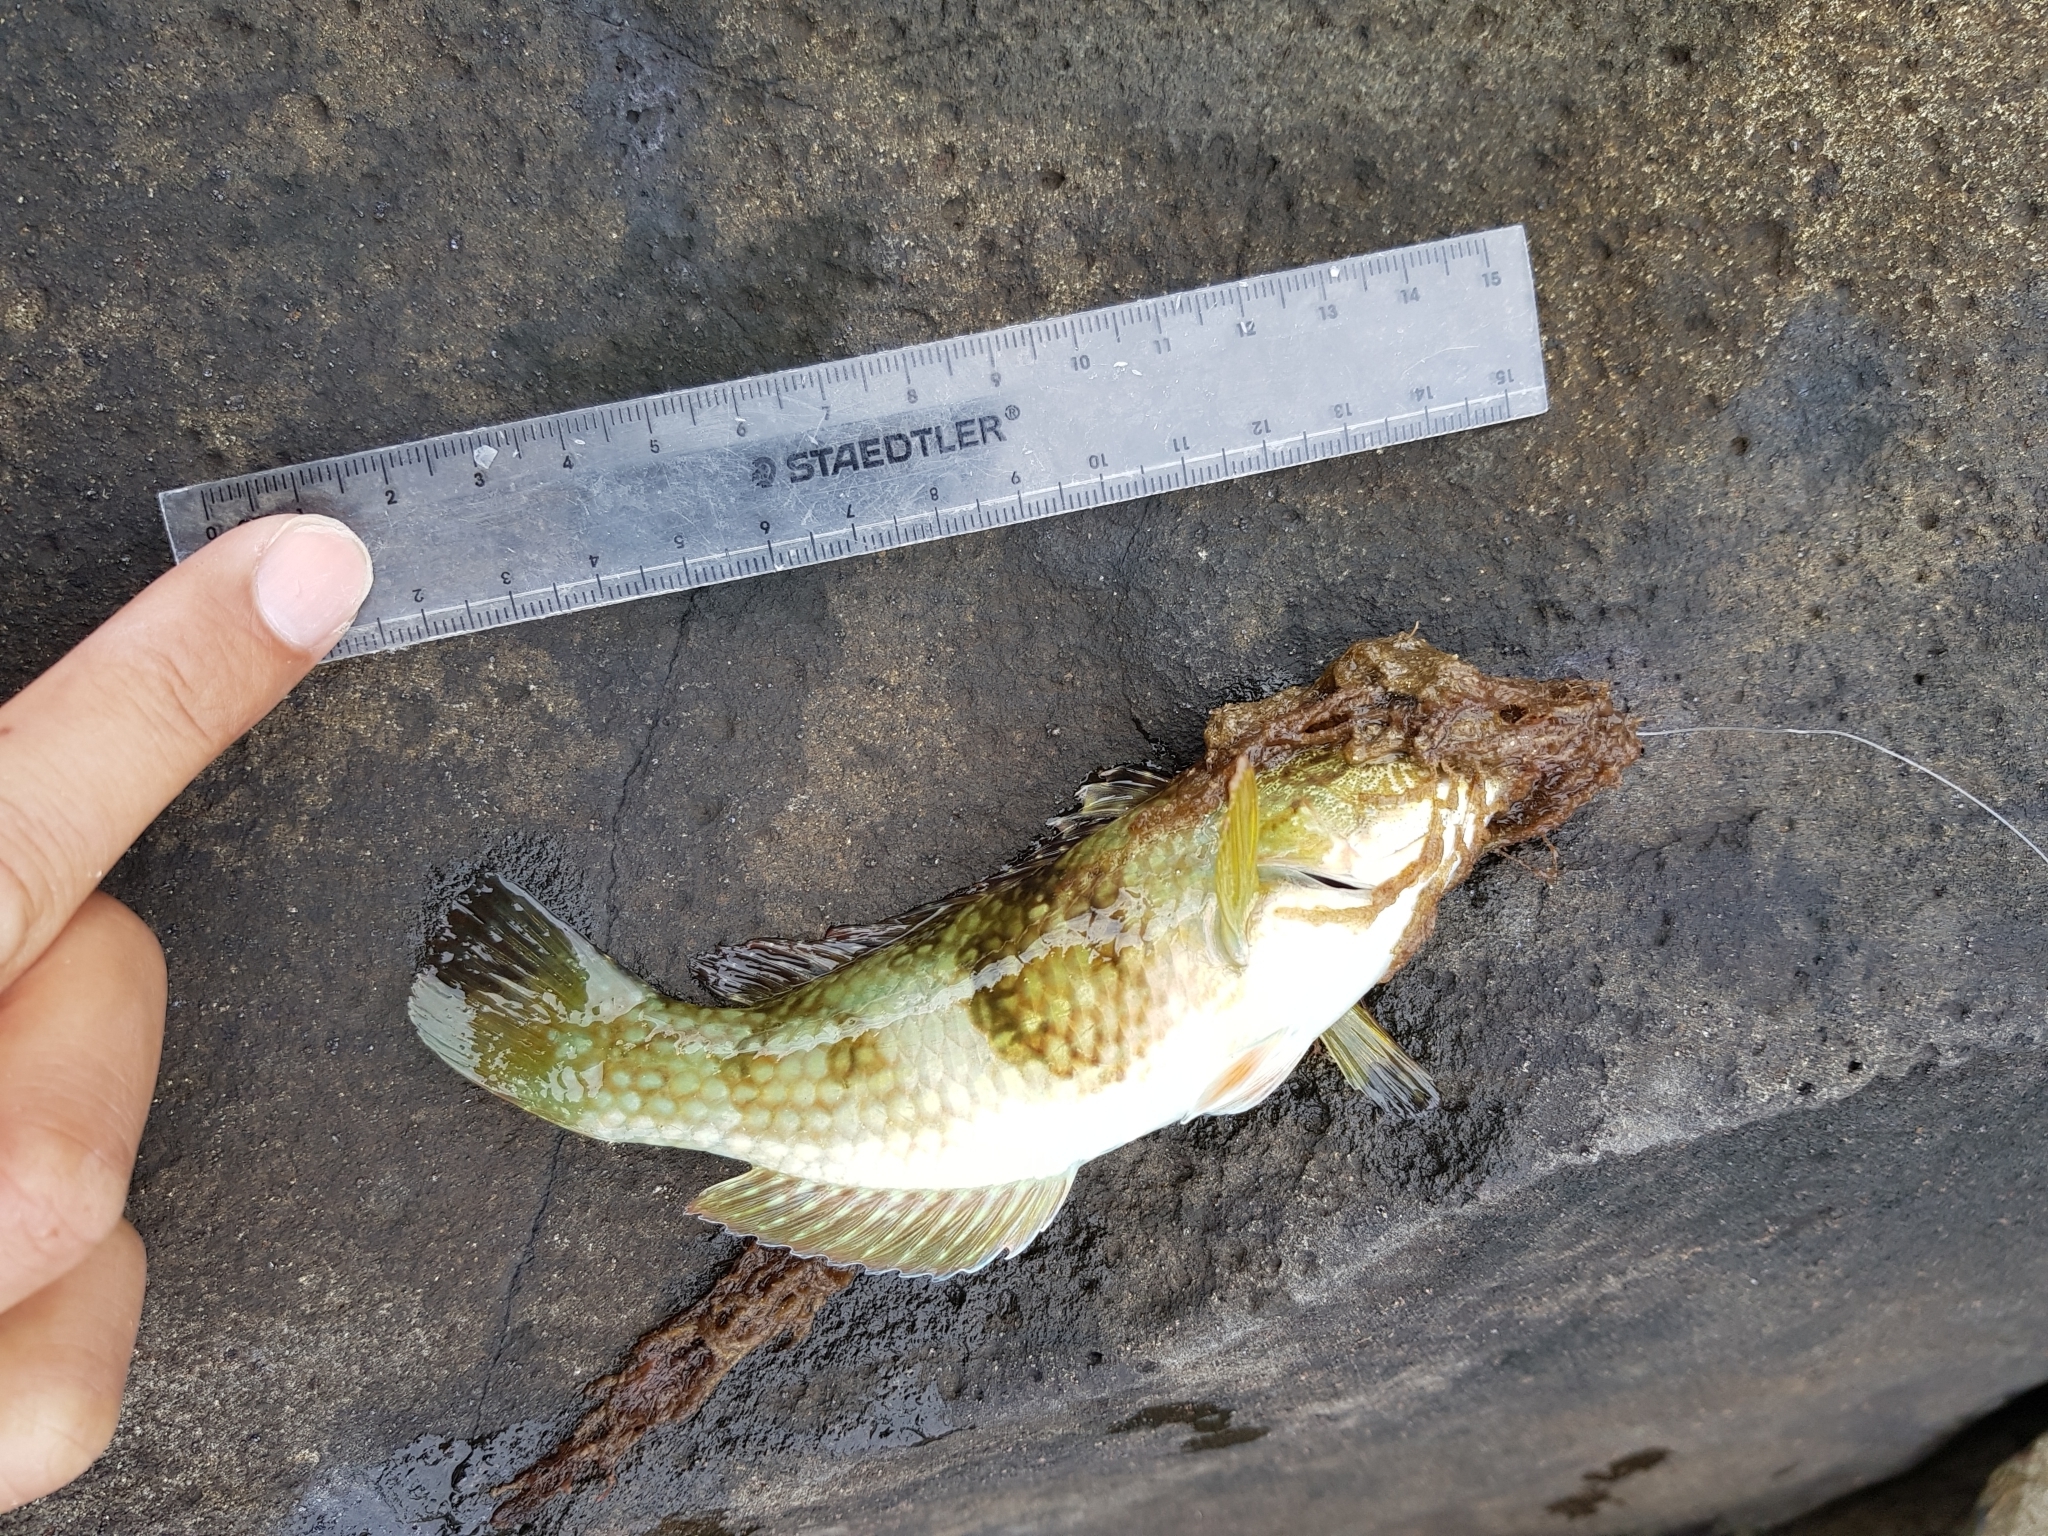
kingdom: Animalia
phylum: Chordata
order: Perciformes
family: Labridae
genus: Notolabrus
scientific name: Notolabrus tetricus
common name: Blue-throated parrotfish
